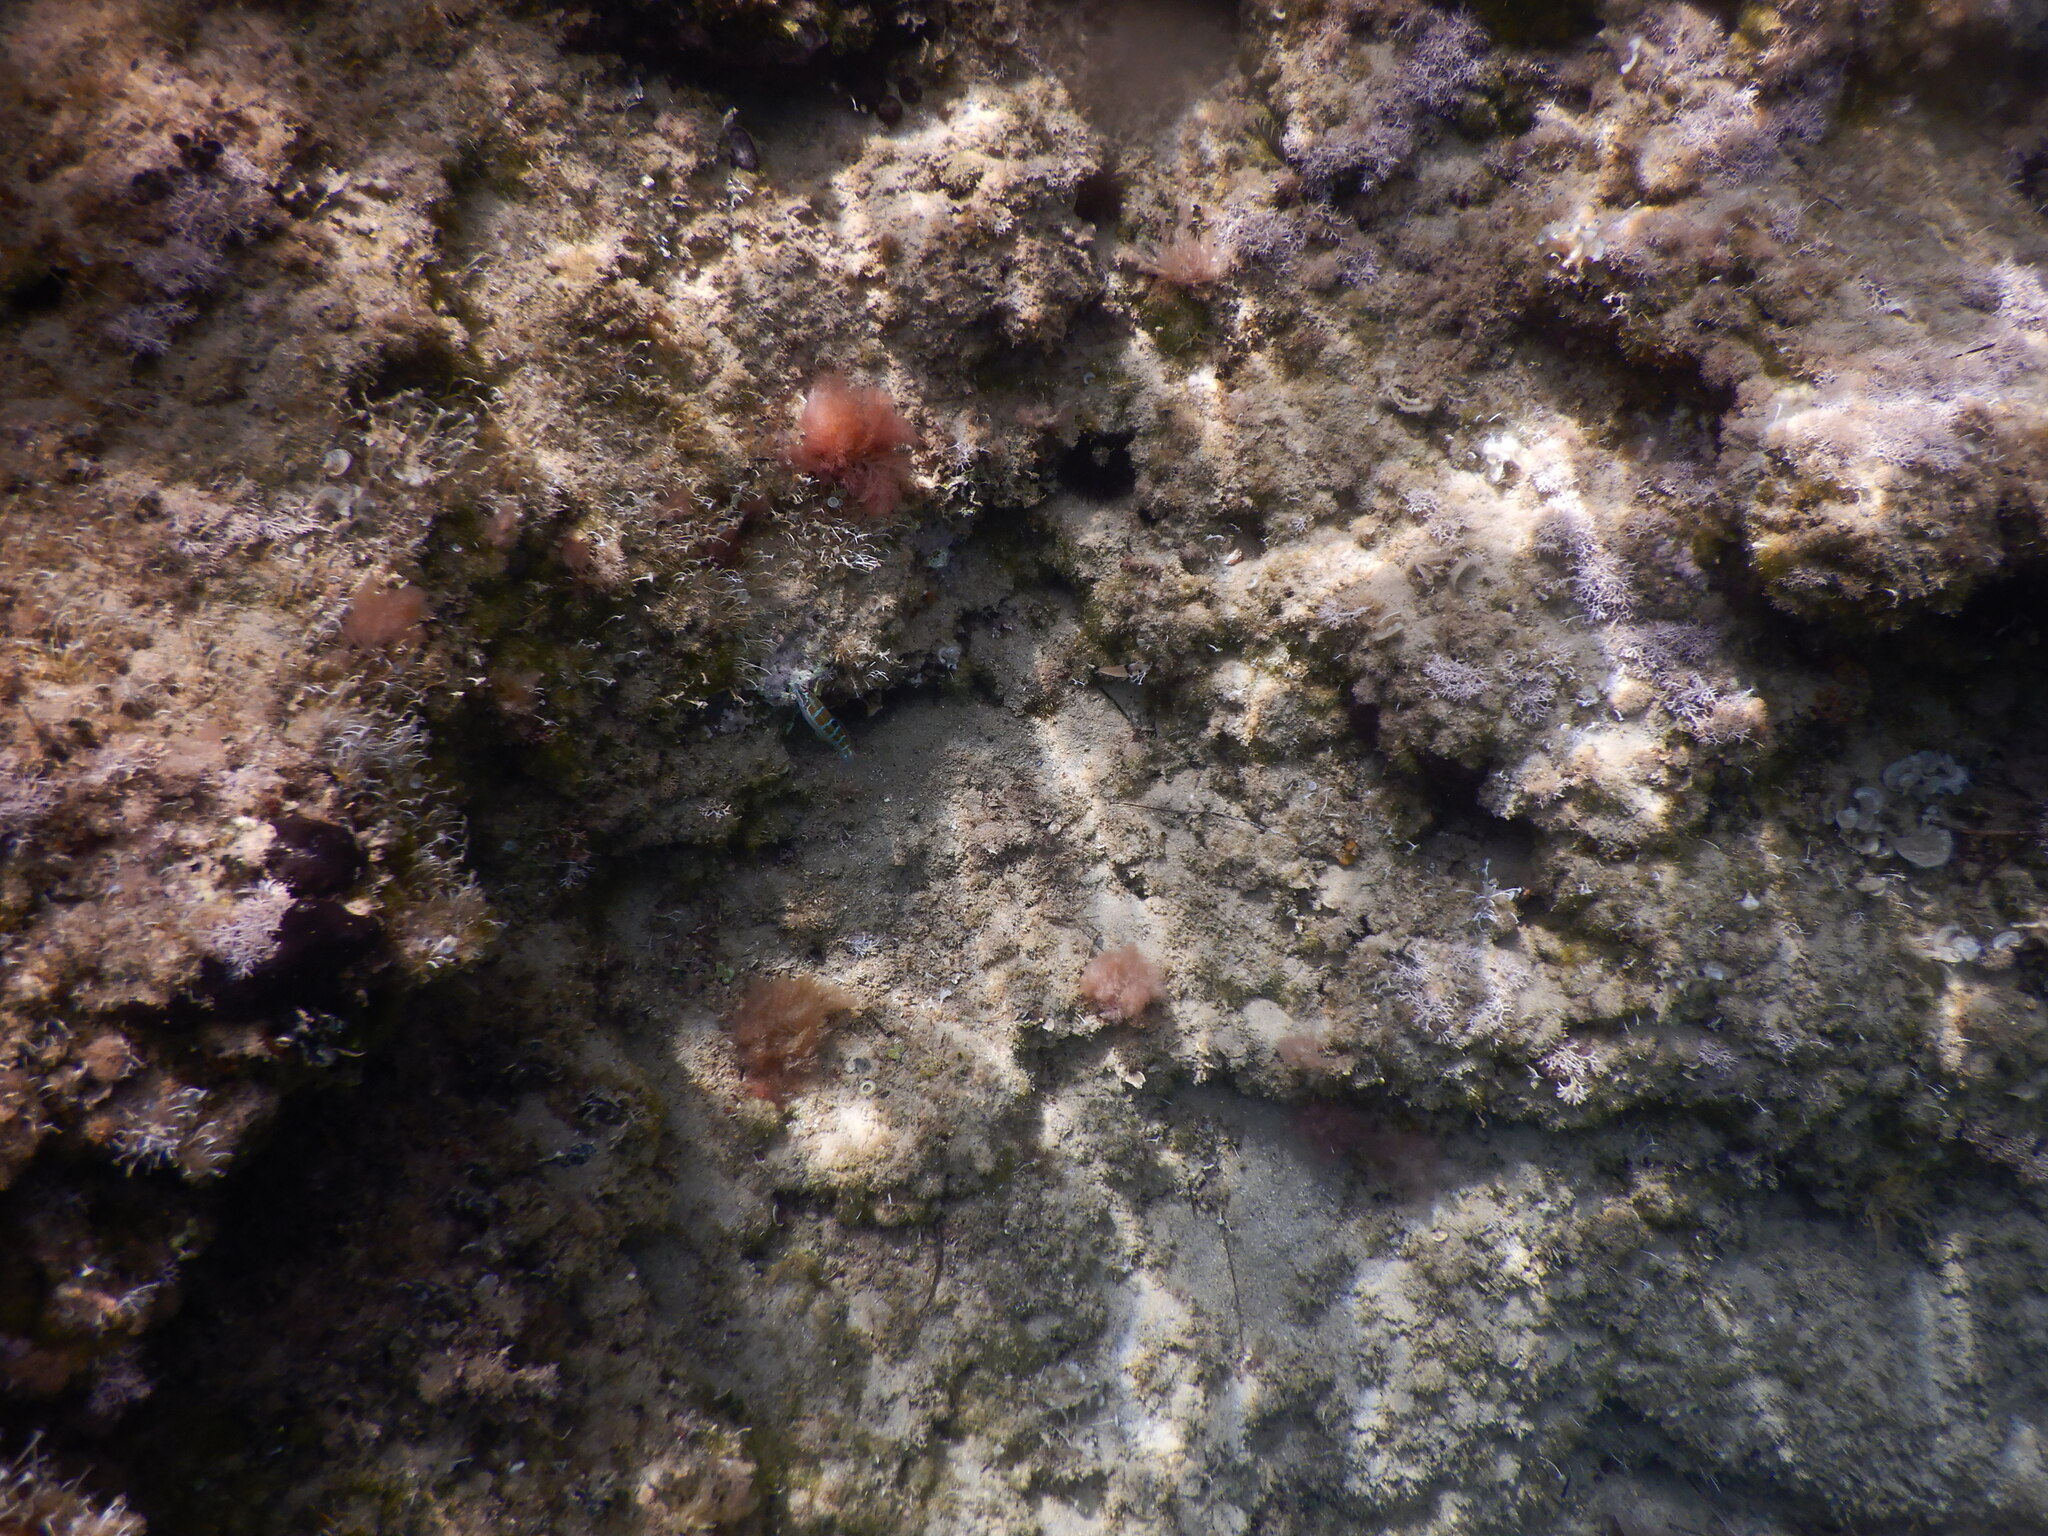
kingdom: Animalia
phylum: Chordata
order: Perciformes
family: Labridae
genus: Thalassoma
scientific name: Thalassoma pavo
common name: Ornate wrasse
